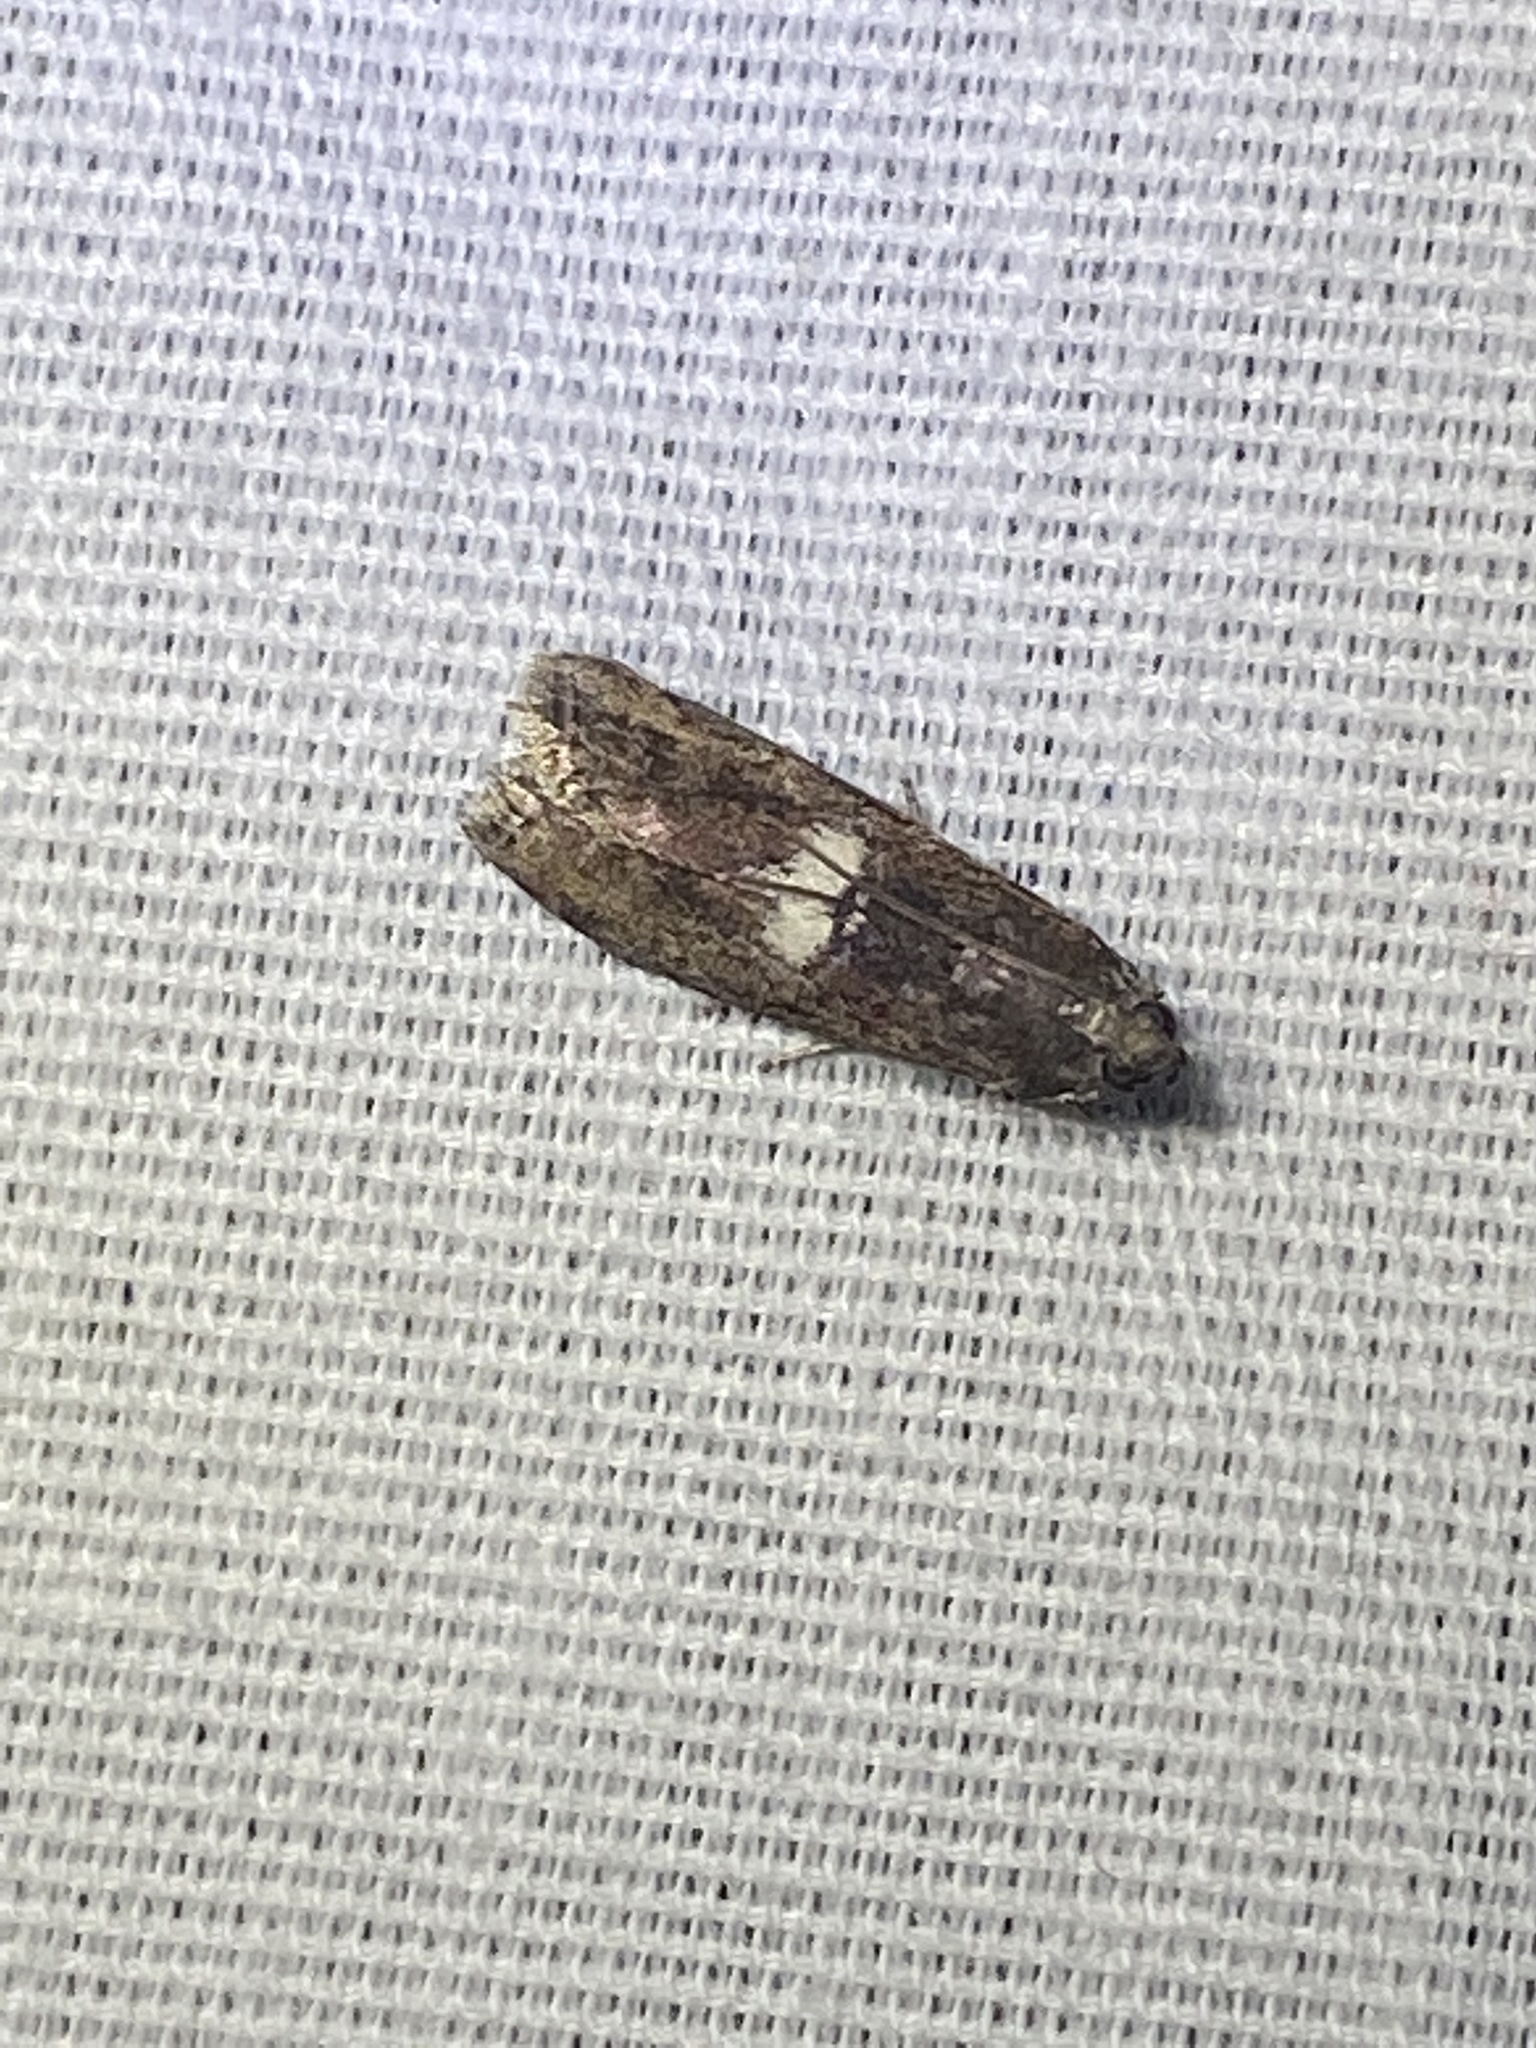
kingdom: Animalia
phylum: Arthropoda
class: Insecta
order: Lepidoptera
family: Pyralidae
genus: Salebriaria
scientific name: Salebriaria engeli
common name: Engel's salebriaria moth
